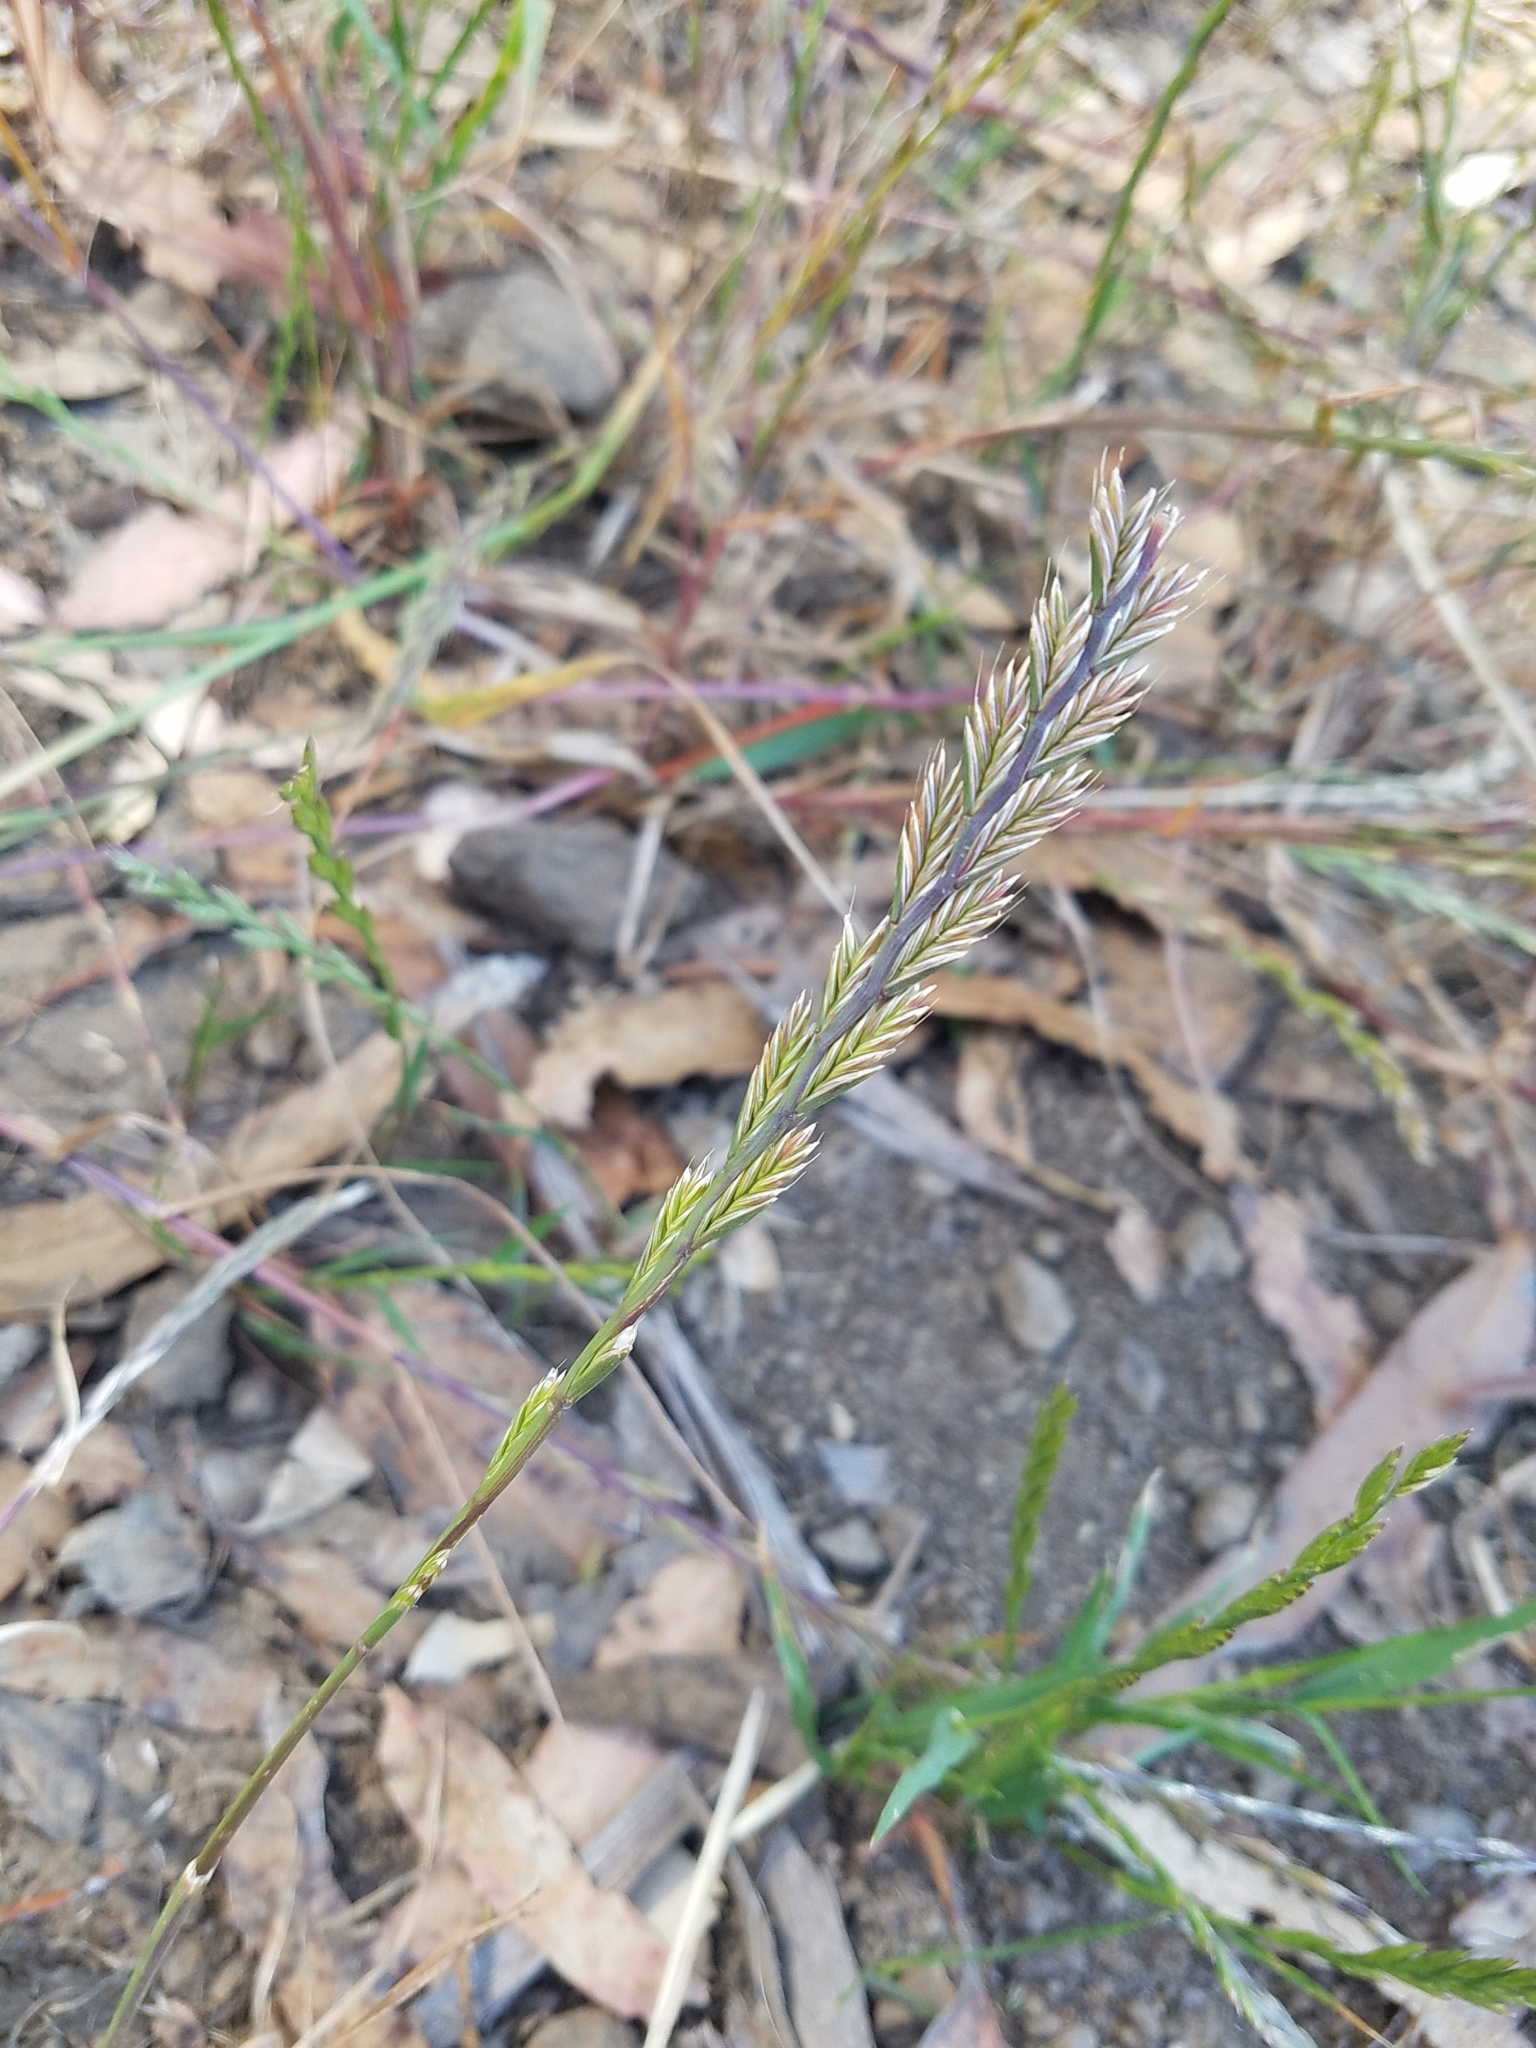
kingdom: Plantae
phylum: Tracheophyta
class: Liliopsida
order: Poales
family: Poaceae
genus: Lolium
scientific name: Lolium multiflorum
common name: Annual ryegrass
